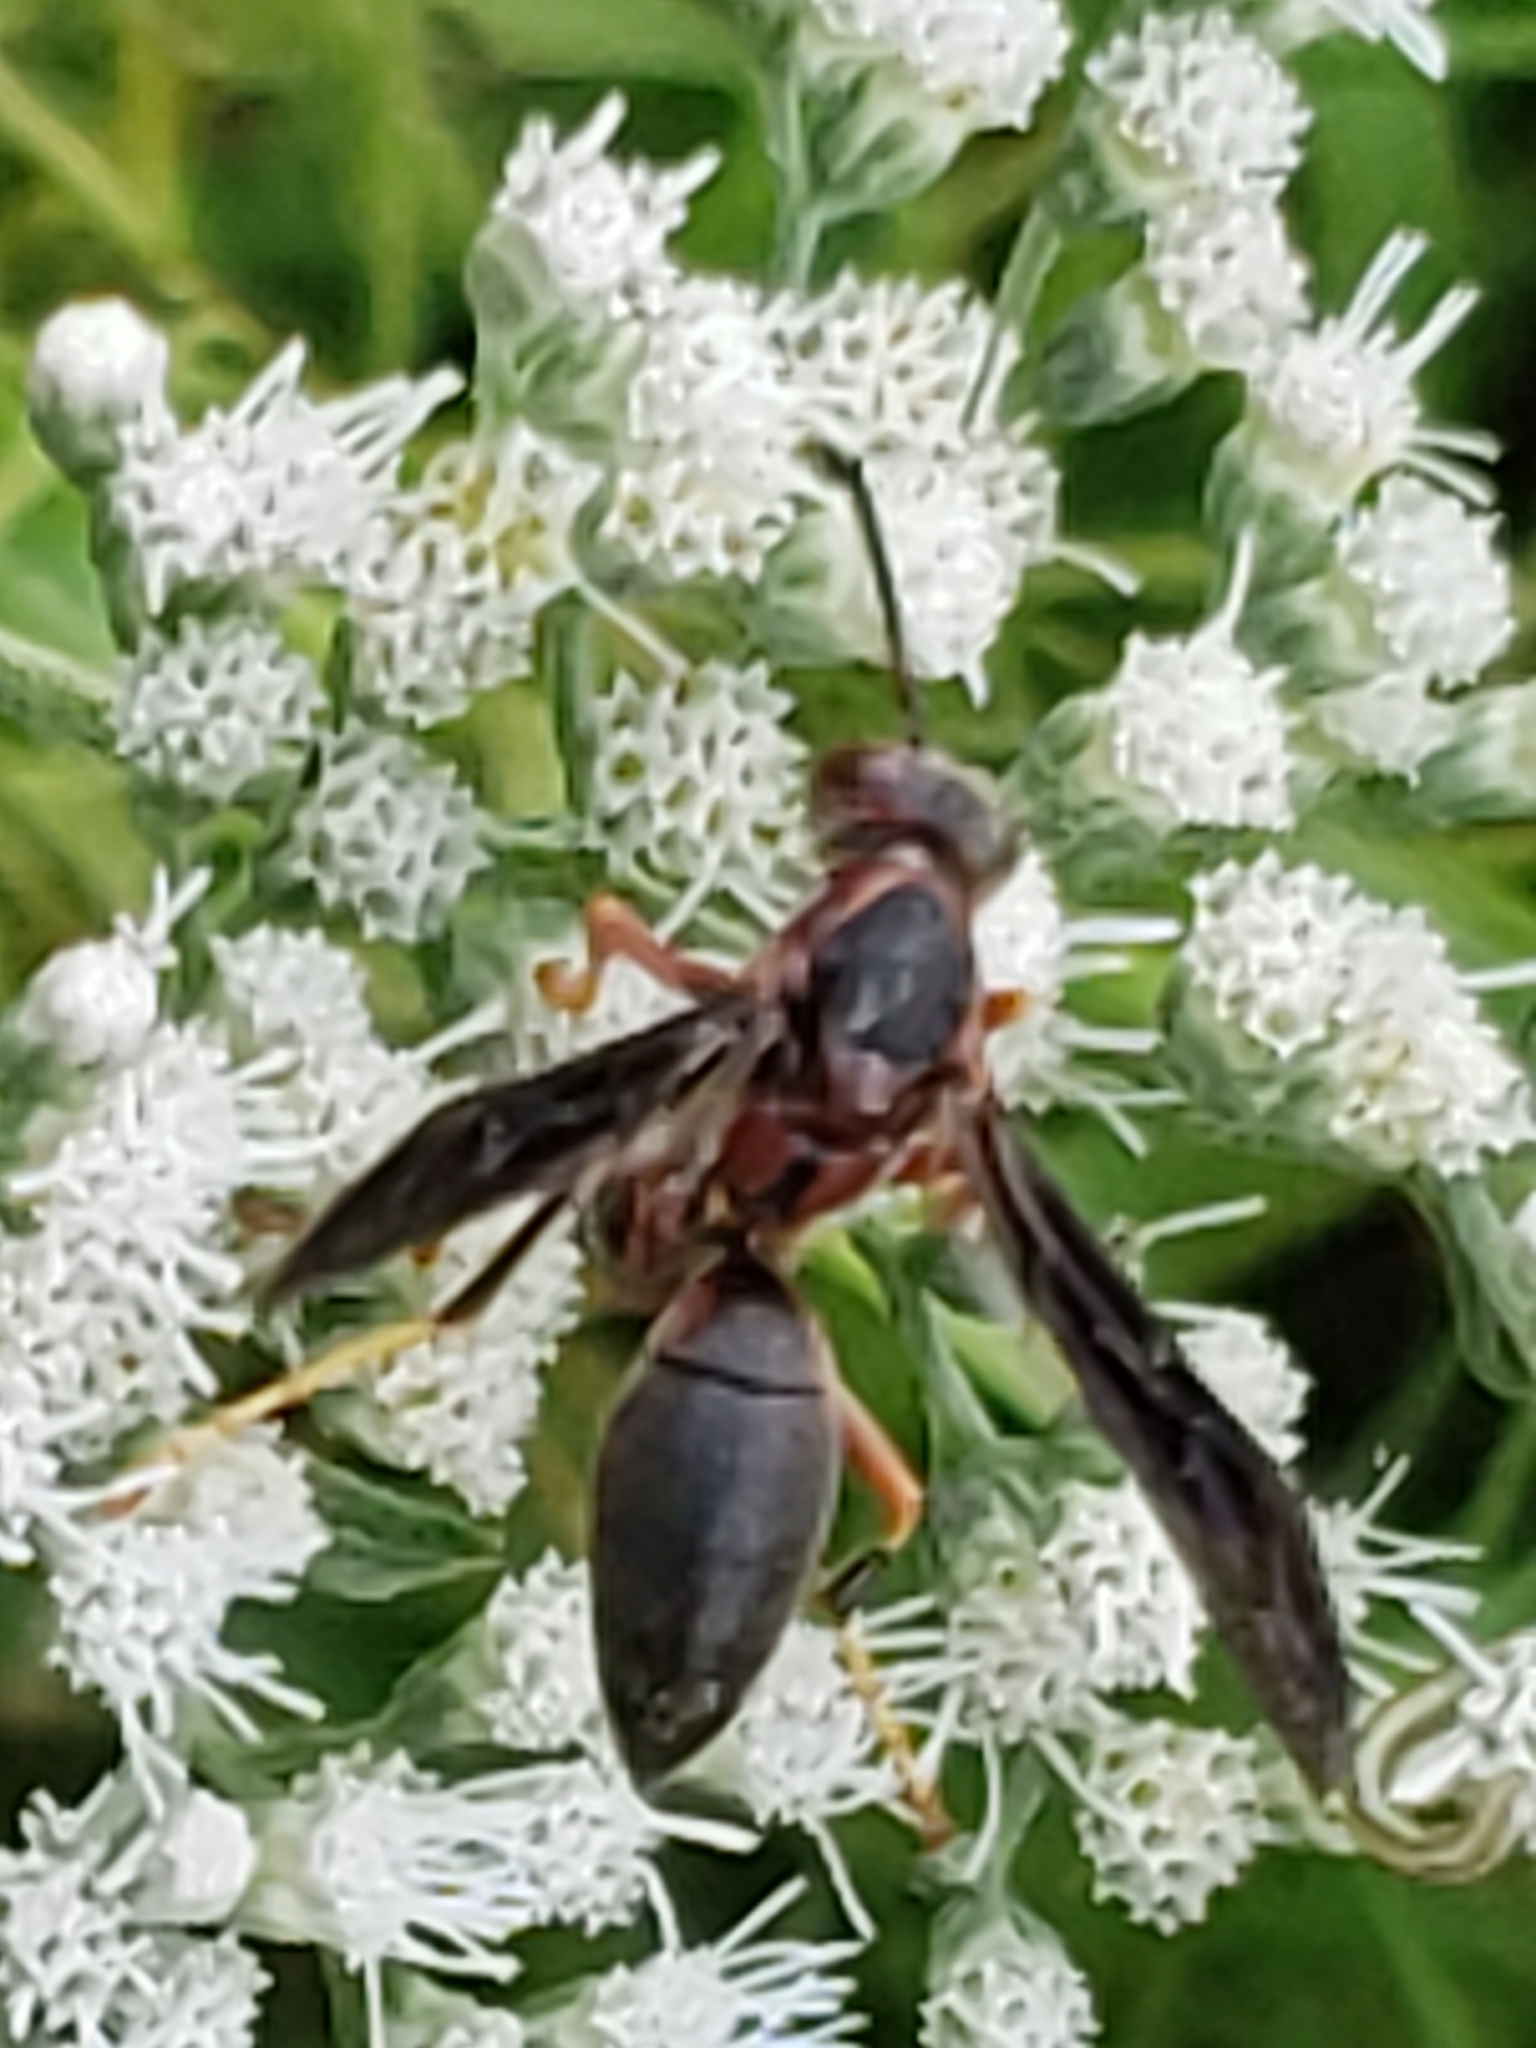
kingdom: Animalia
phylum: Arthropoda
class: Insecta
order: Hymenoptera
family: Eumenidae
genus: Polistes
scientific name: Polistes metricus
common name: Metric paper wasp
